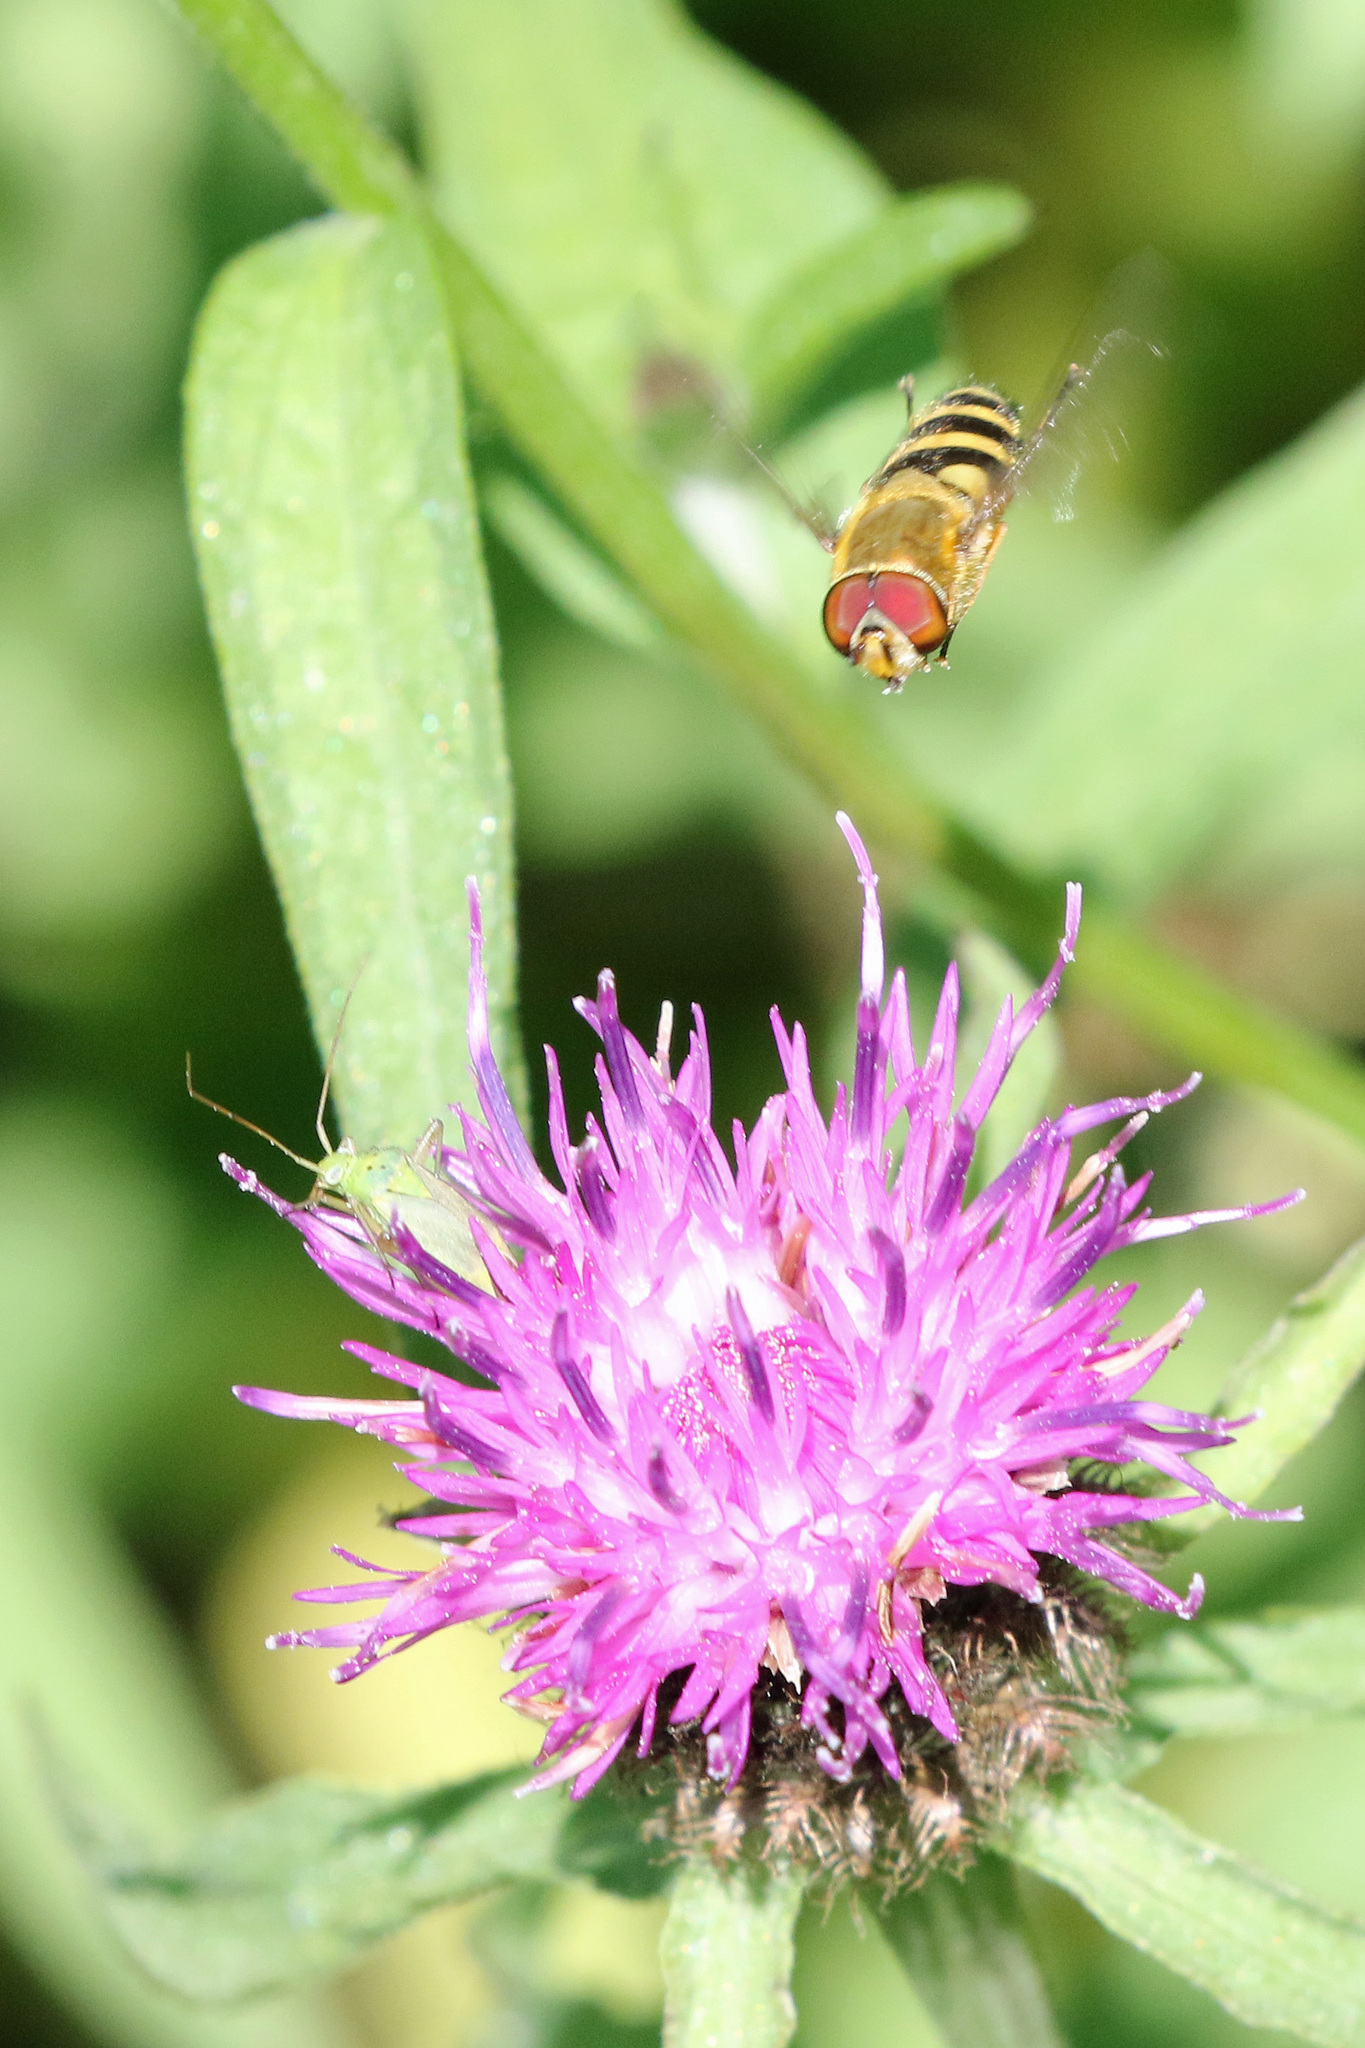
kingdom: Animalia
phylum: Arthropoda
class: Insecta
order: Diptera
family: Syrphidae
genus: Syrphus
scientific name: Syrphus
